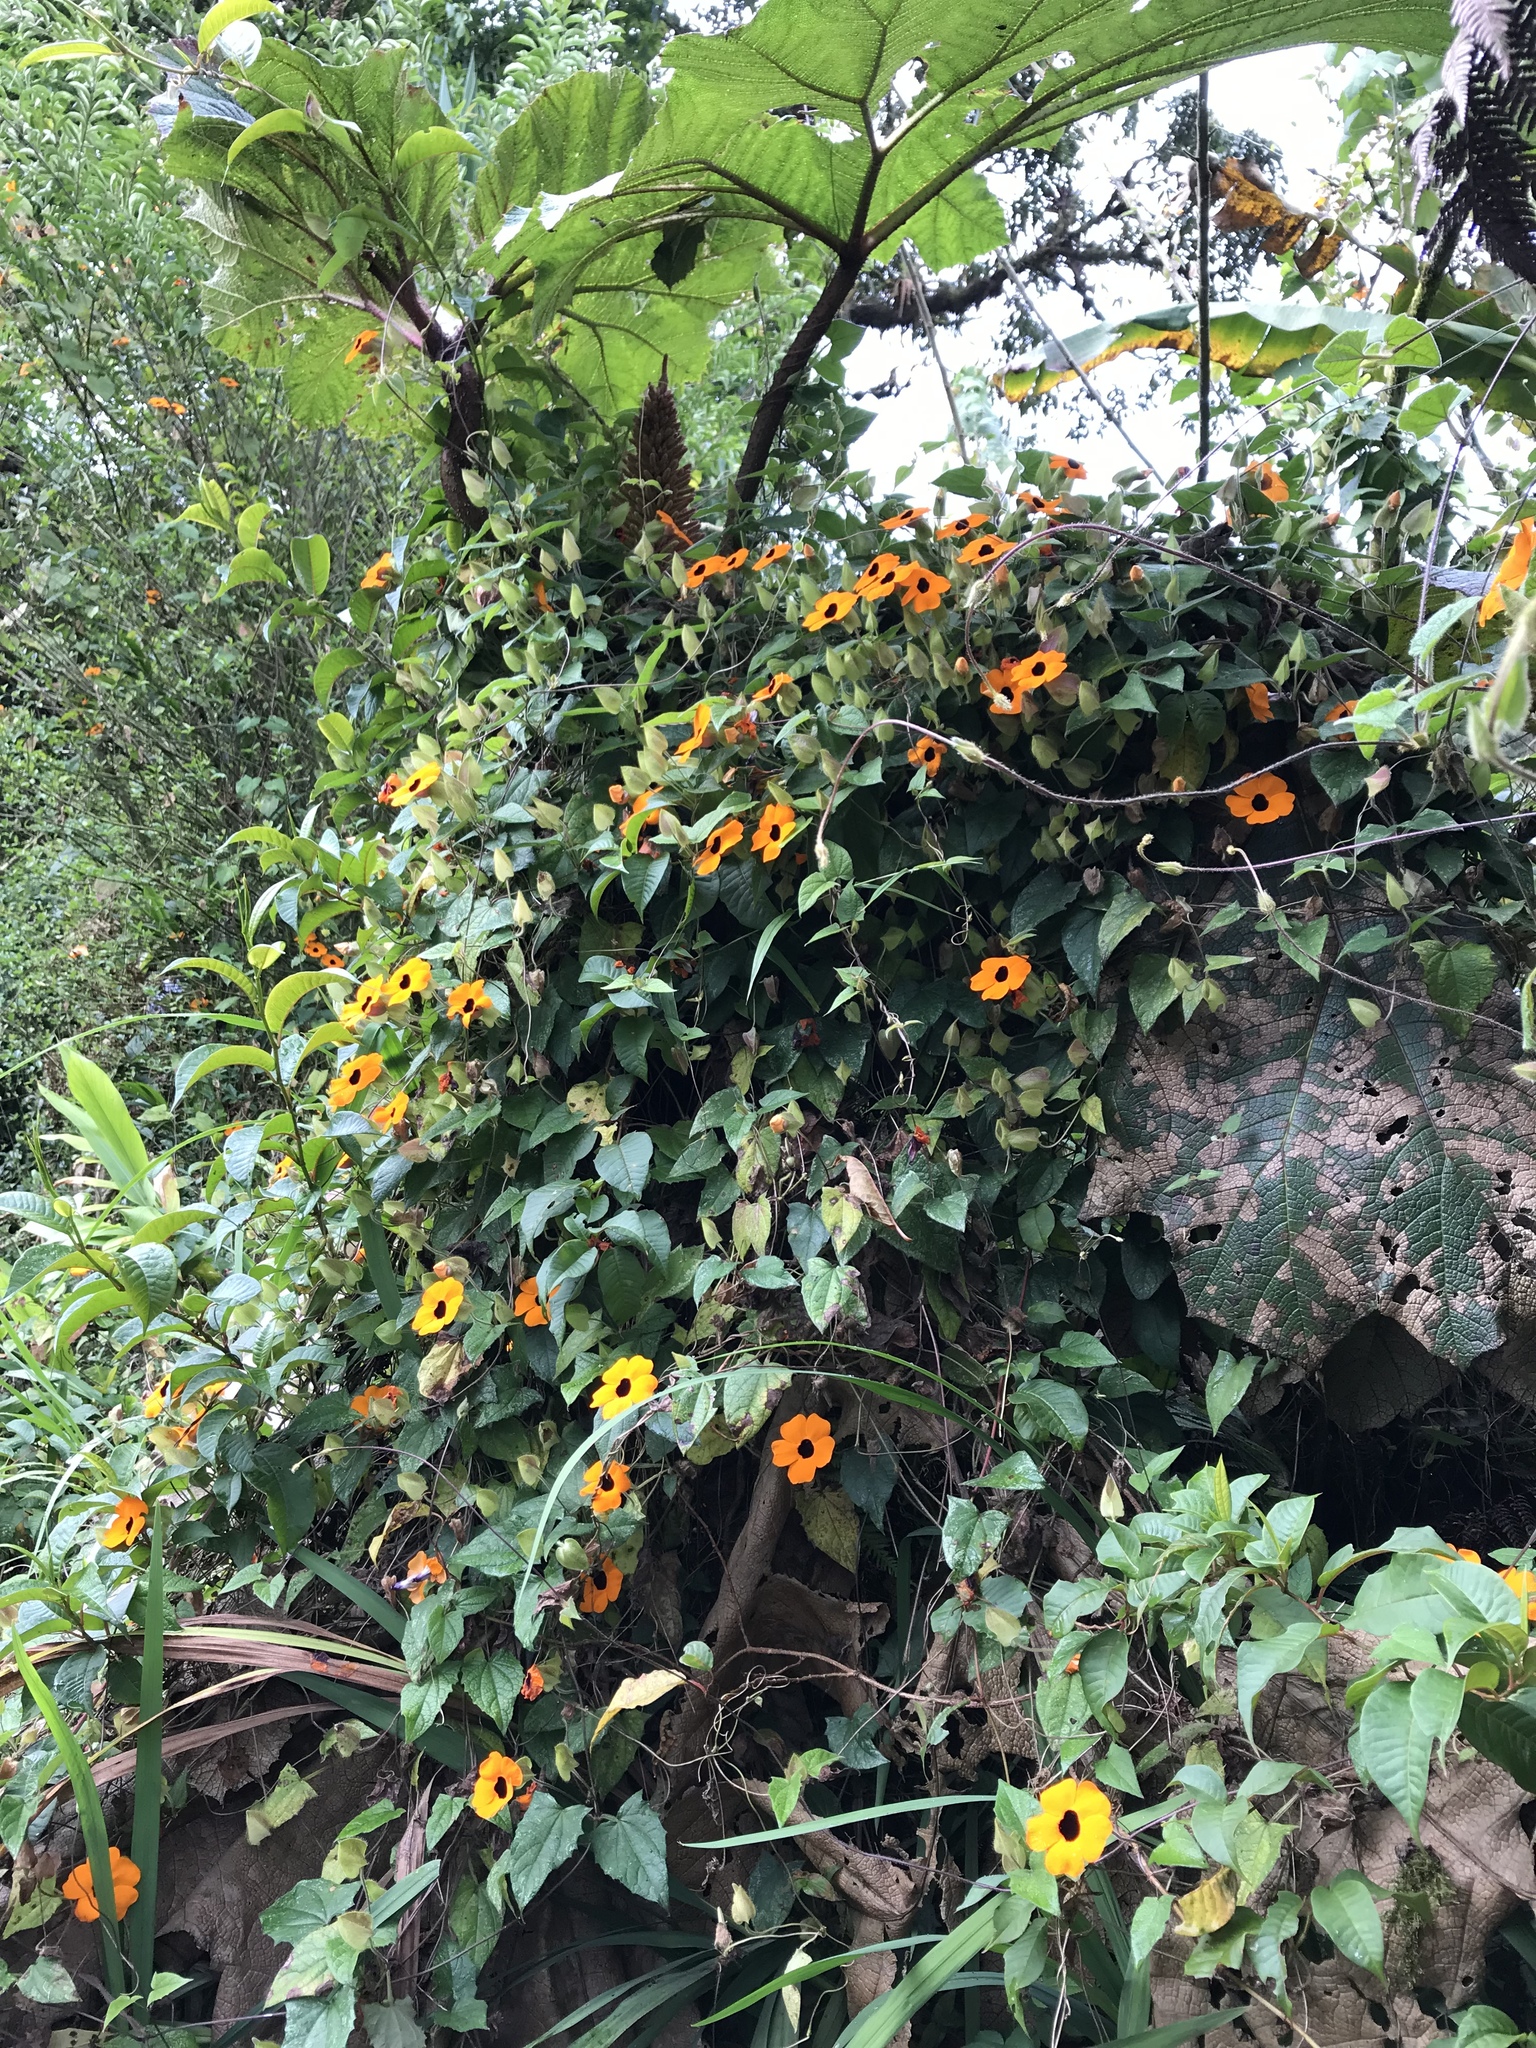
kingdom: Plantae
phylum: Tracheophyta
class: Magnoliopsida
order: Lamiales
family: Acanthaceae
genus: Thunbergia
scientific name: Thunbergia alata
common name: Blackeyed susan vine
